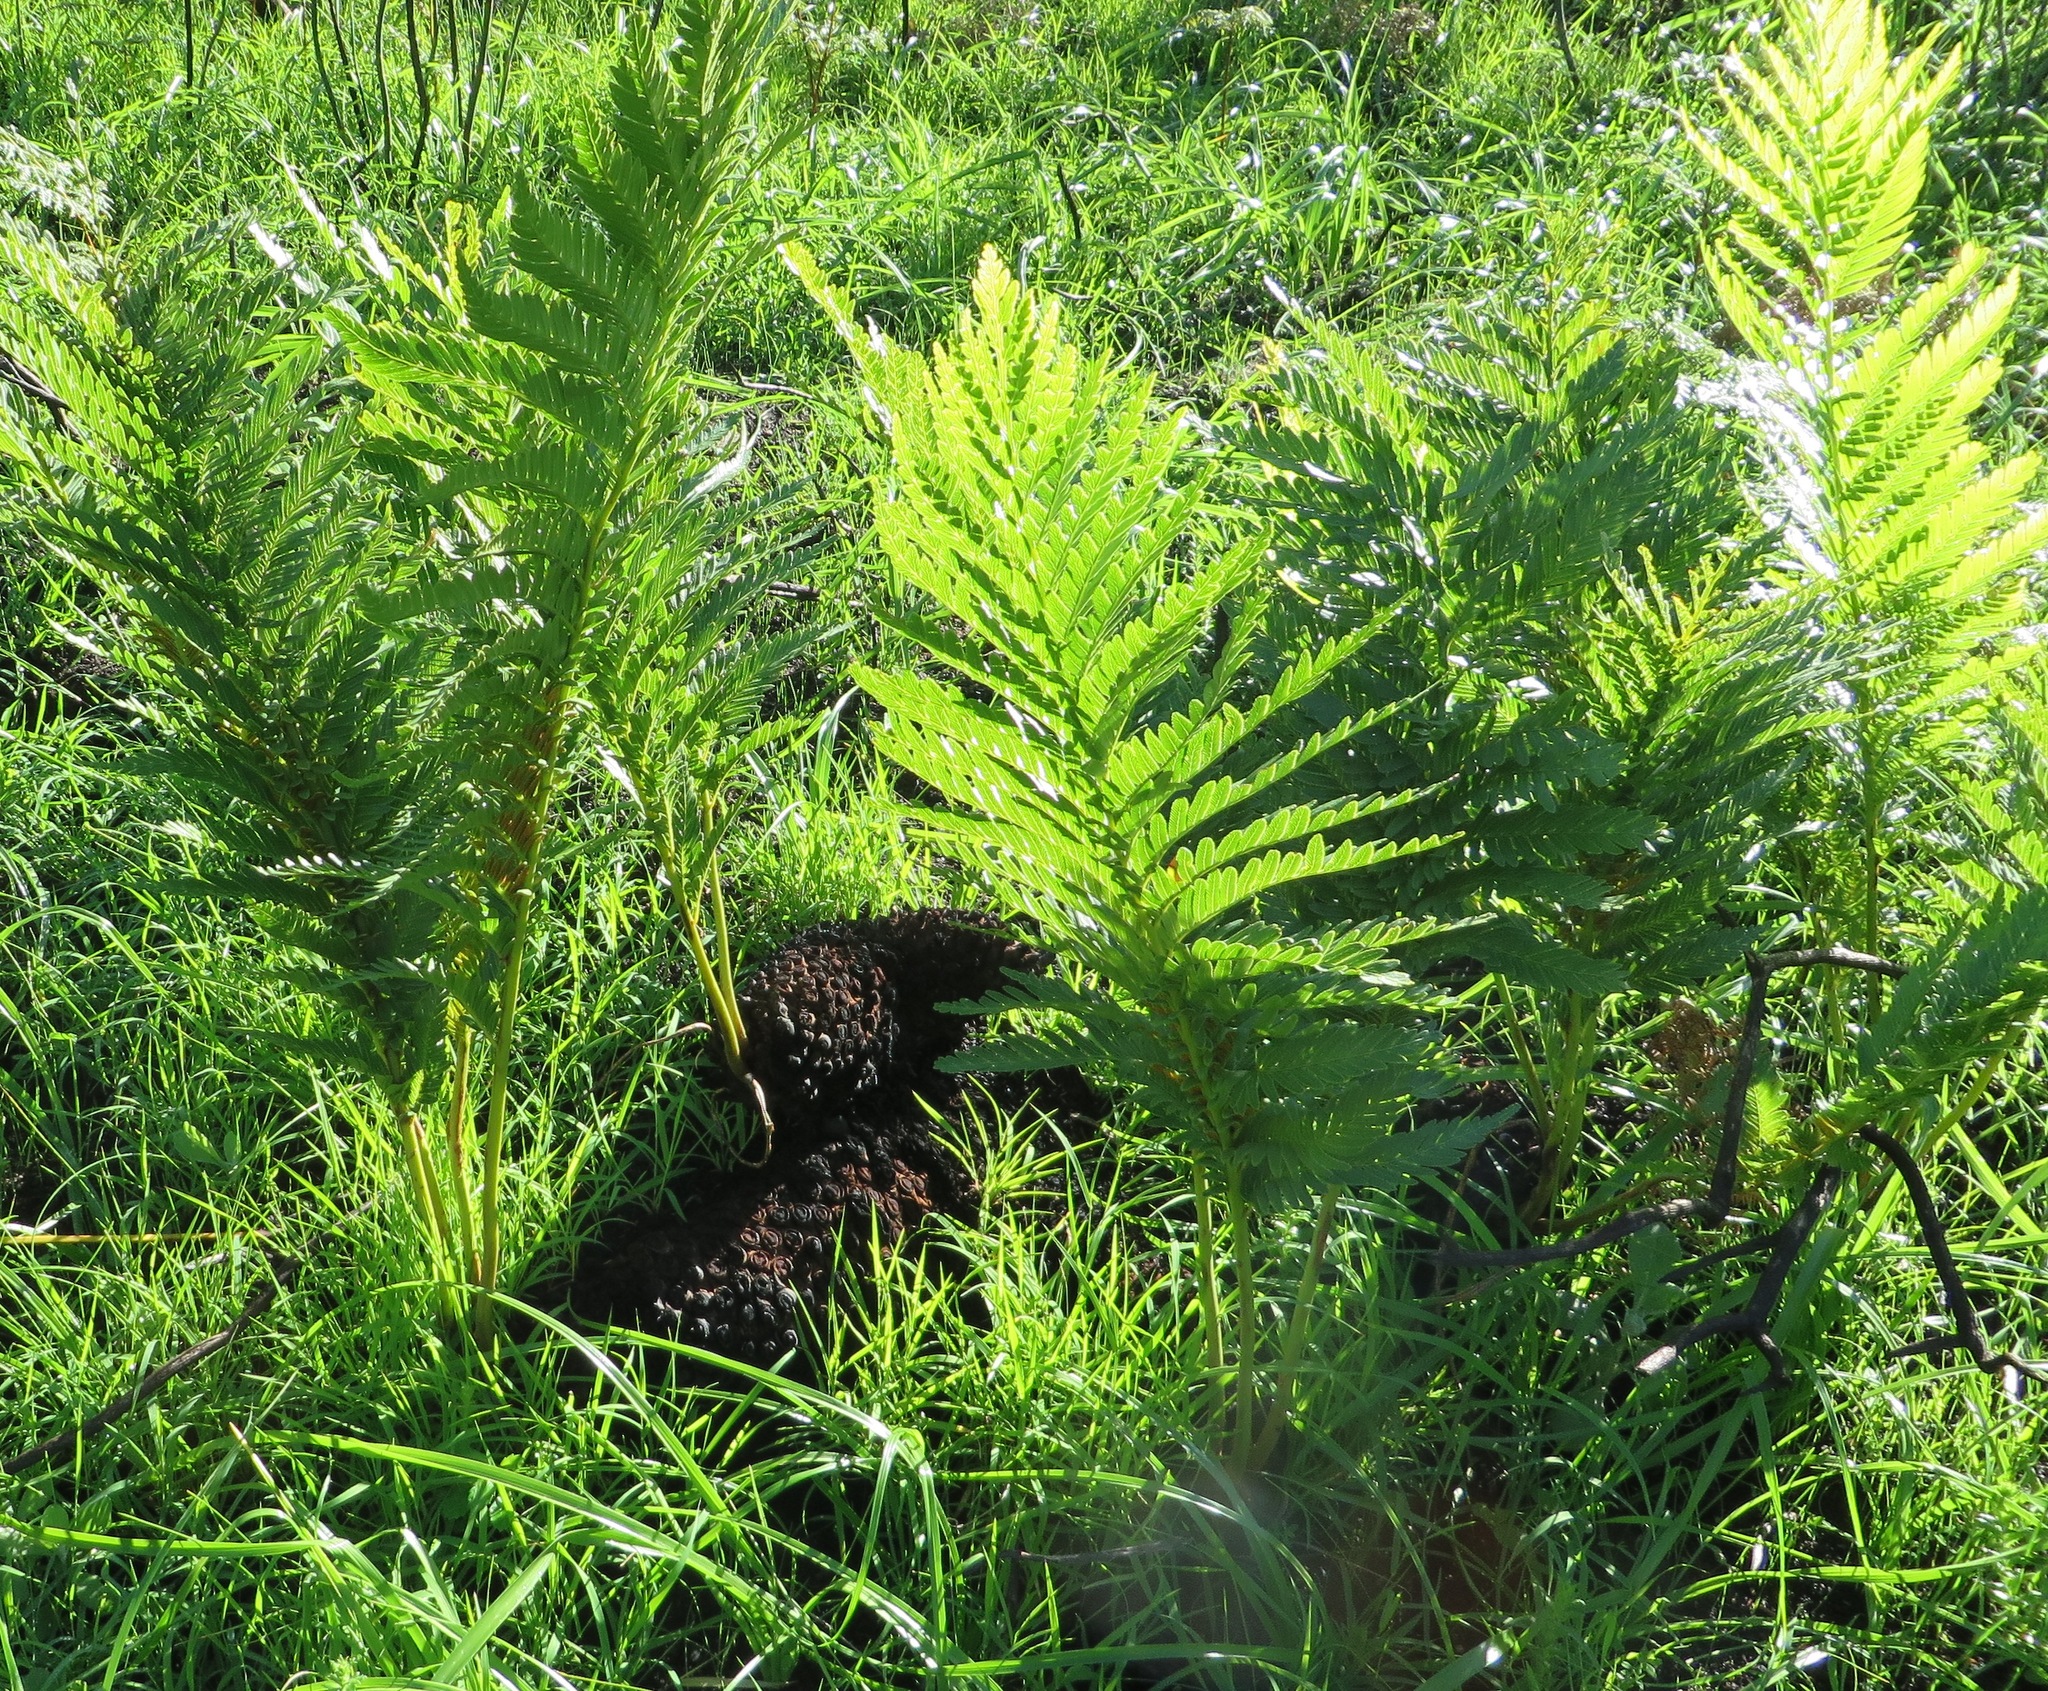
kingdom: Plantae
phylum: Tracheophyta
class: Polypodiopsida
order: Osmundales
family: Osmundaceae
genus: Todea
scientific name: Todea barbara
